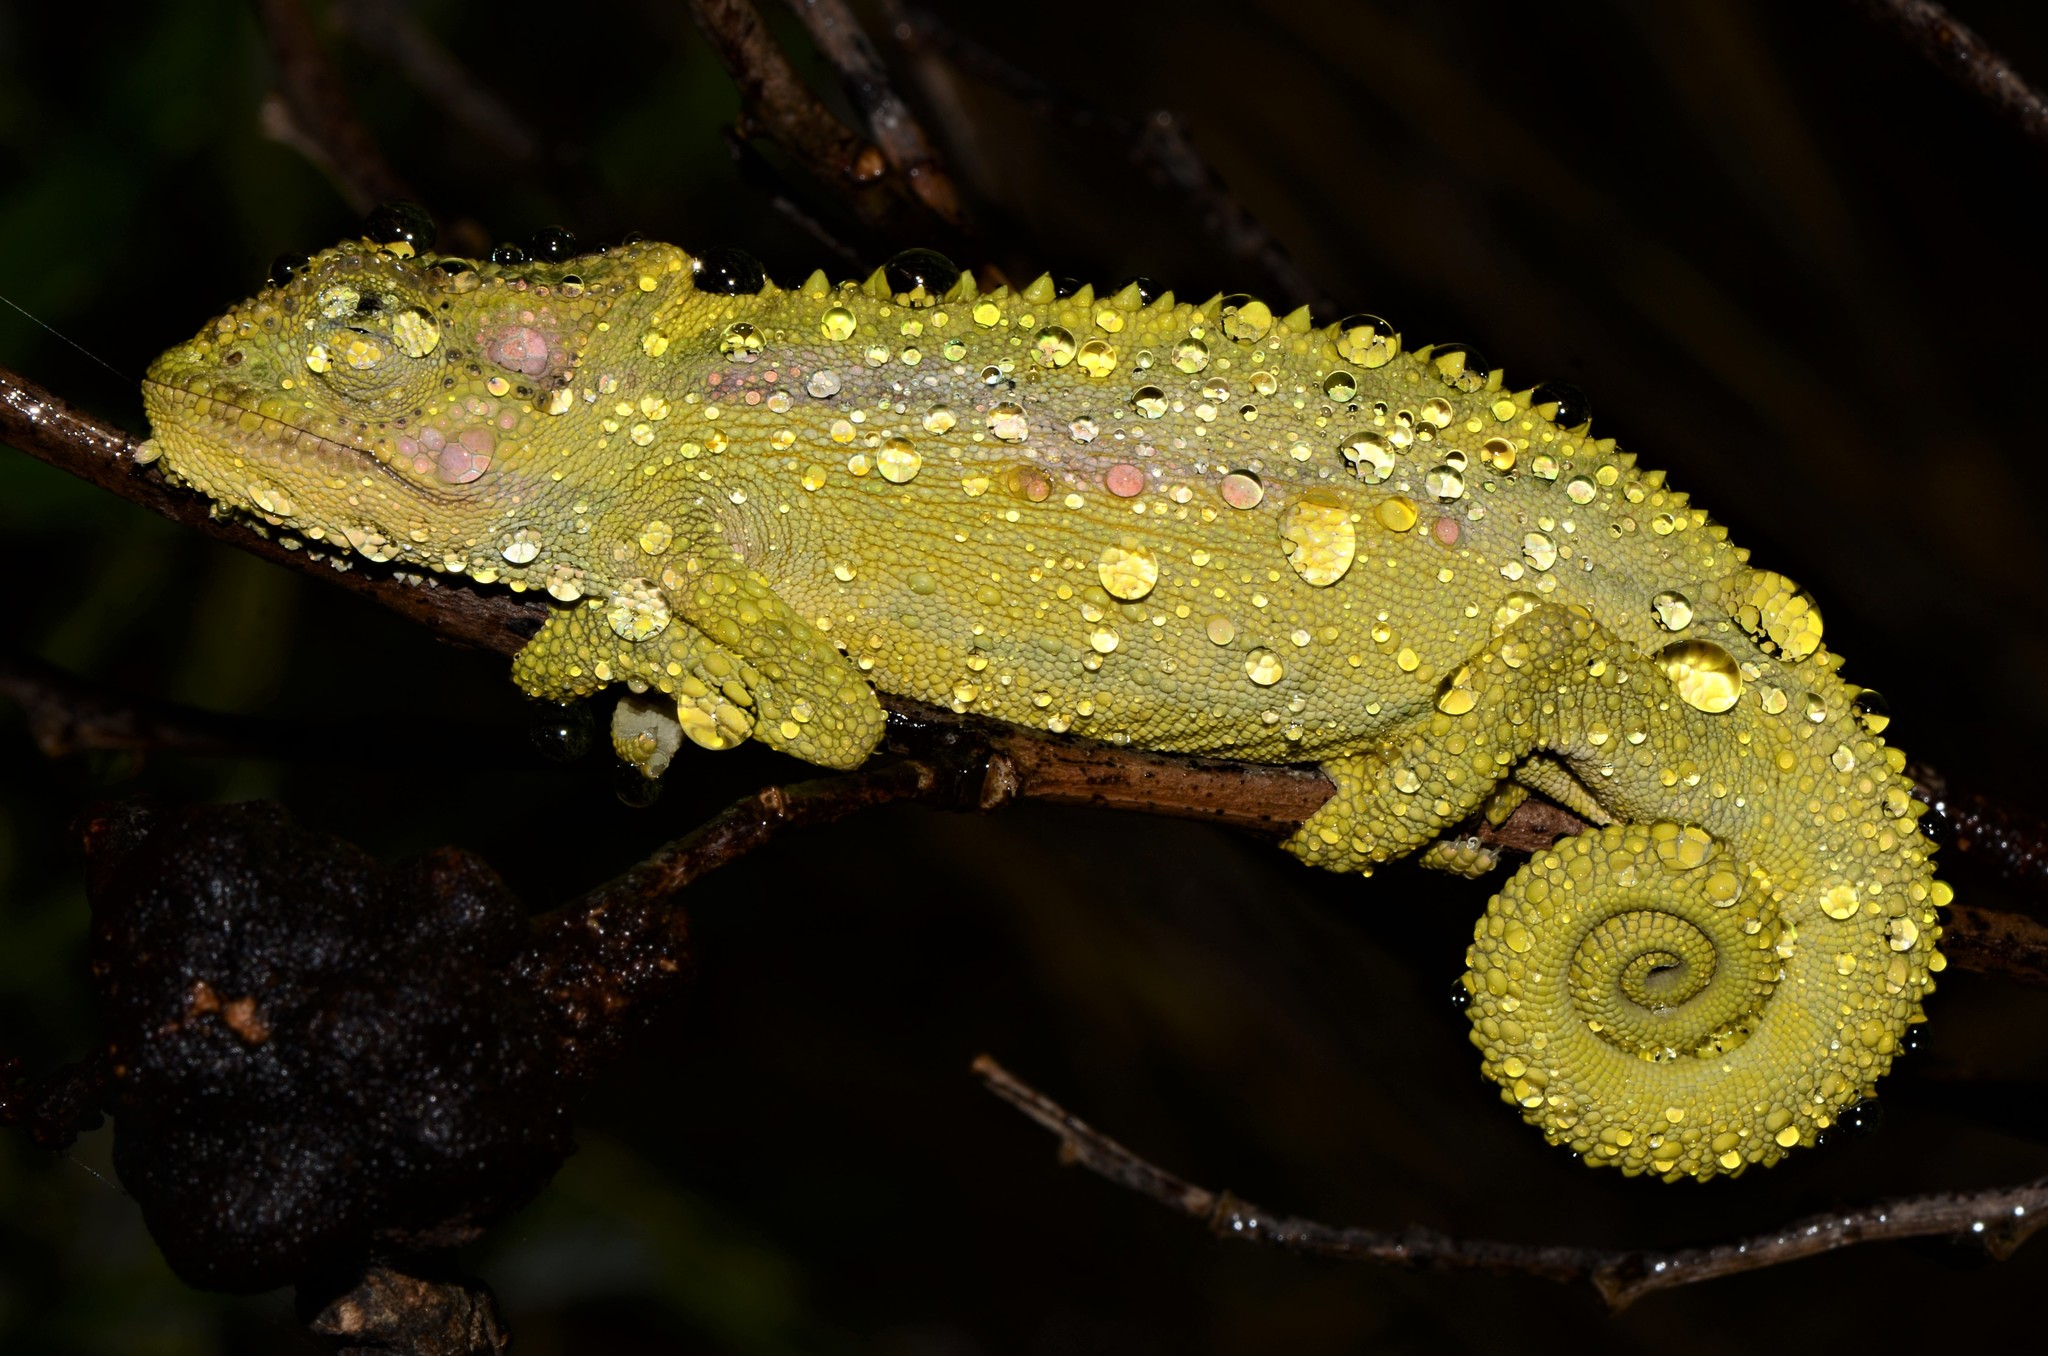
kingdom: Animalia
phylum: Chordata
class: Squamata
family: Chamaeleonidae
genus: Bradypodion
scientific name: Bradypodion pumilum
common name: Cape dwarf chameleon
